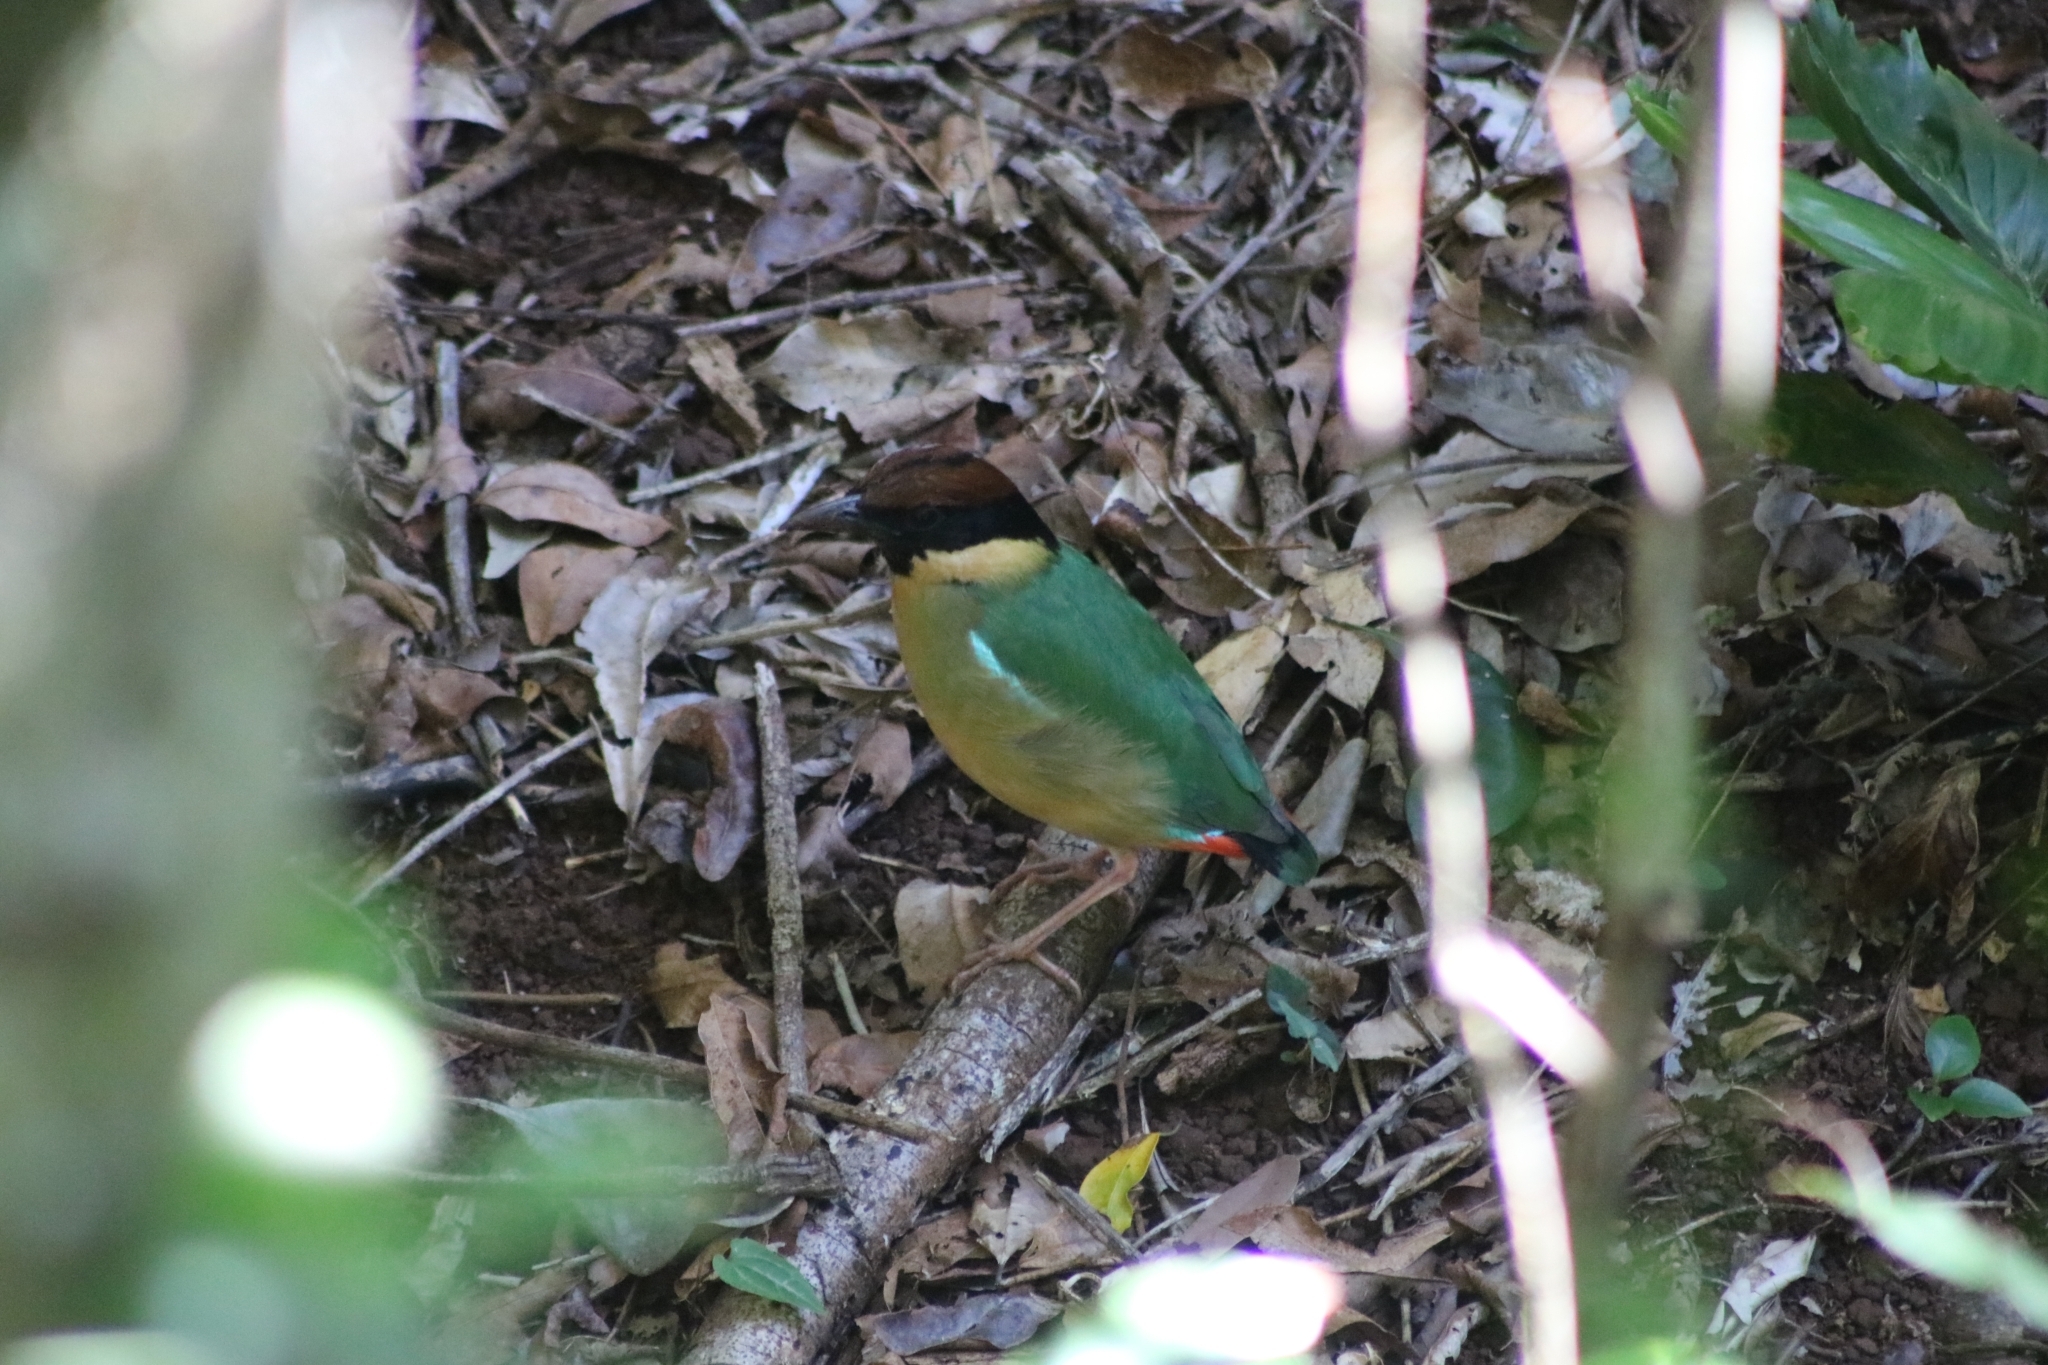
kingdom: Animalia
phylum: Chordata
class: Aves
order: Passeriformes
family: Pittidae
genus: Pitta
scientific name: Pitta versicolor
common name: Noisy pitta
